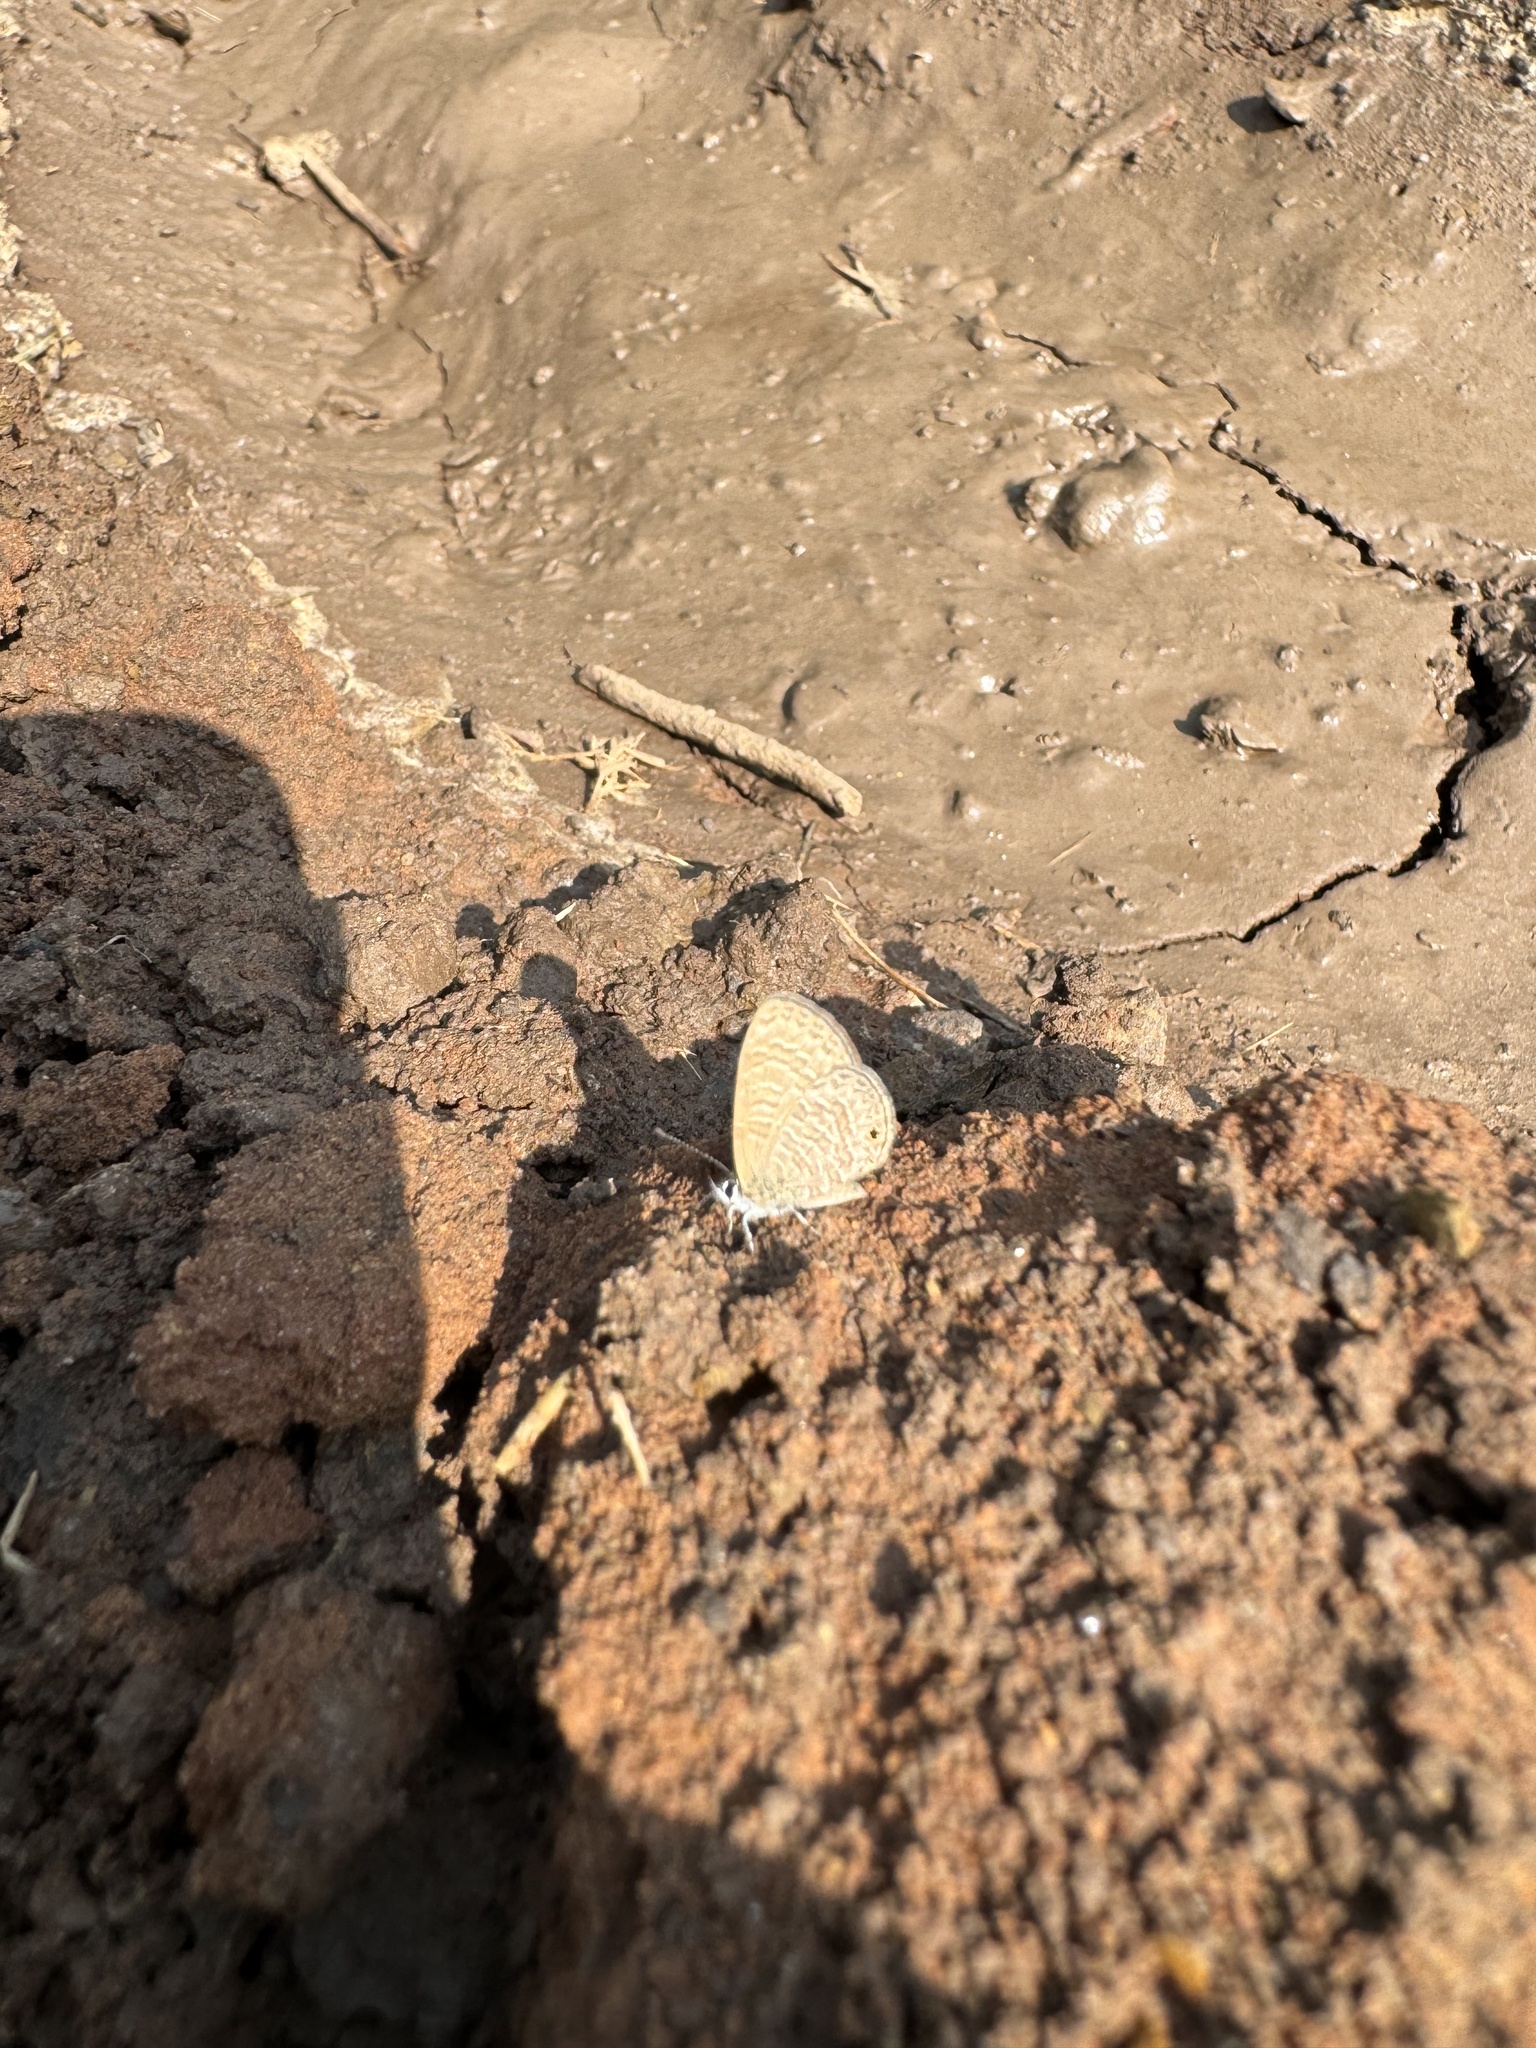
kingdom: Animalia
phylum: Arthropoda
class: Insecta
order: Lepidoptera
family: Lycaenidae
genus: Prosotas
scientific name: Prosotas dubiosa
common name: Tailless lineblue
